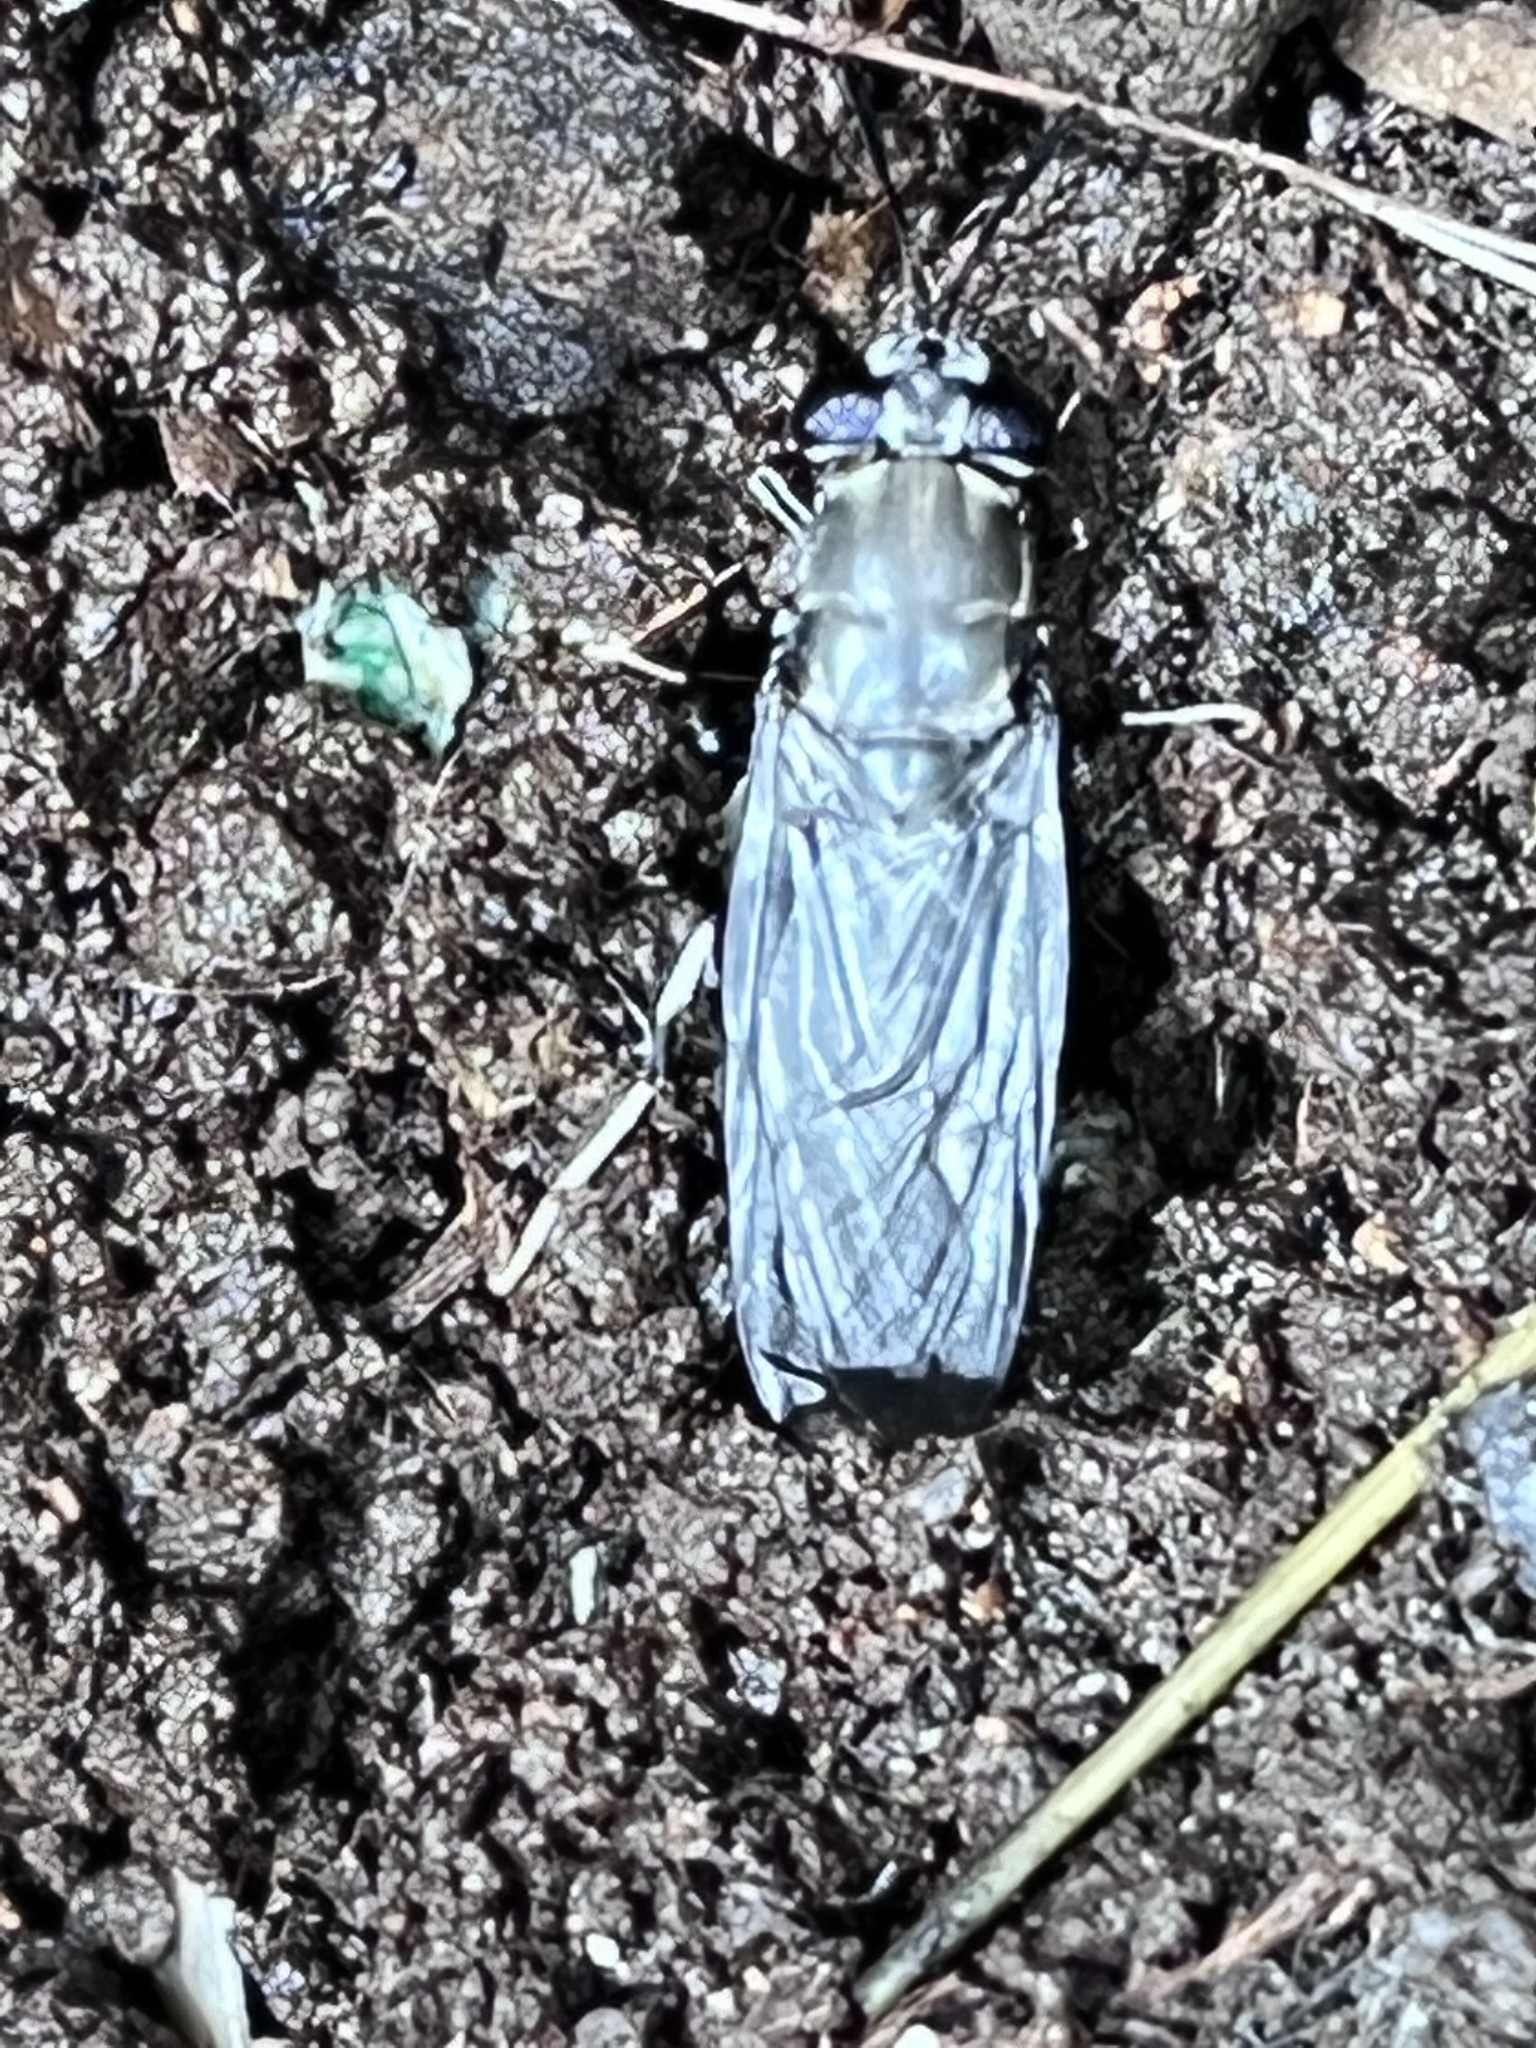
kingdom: Animalia
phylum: Arthropoda
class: Insecta
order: Diptera
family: Stratiomyidae
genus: Hermetia
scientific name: Hermetia illucens
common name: Black soldier fly
